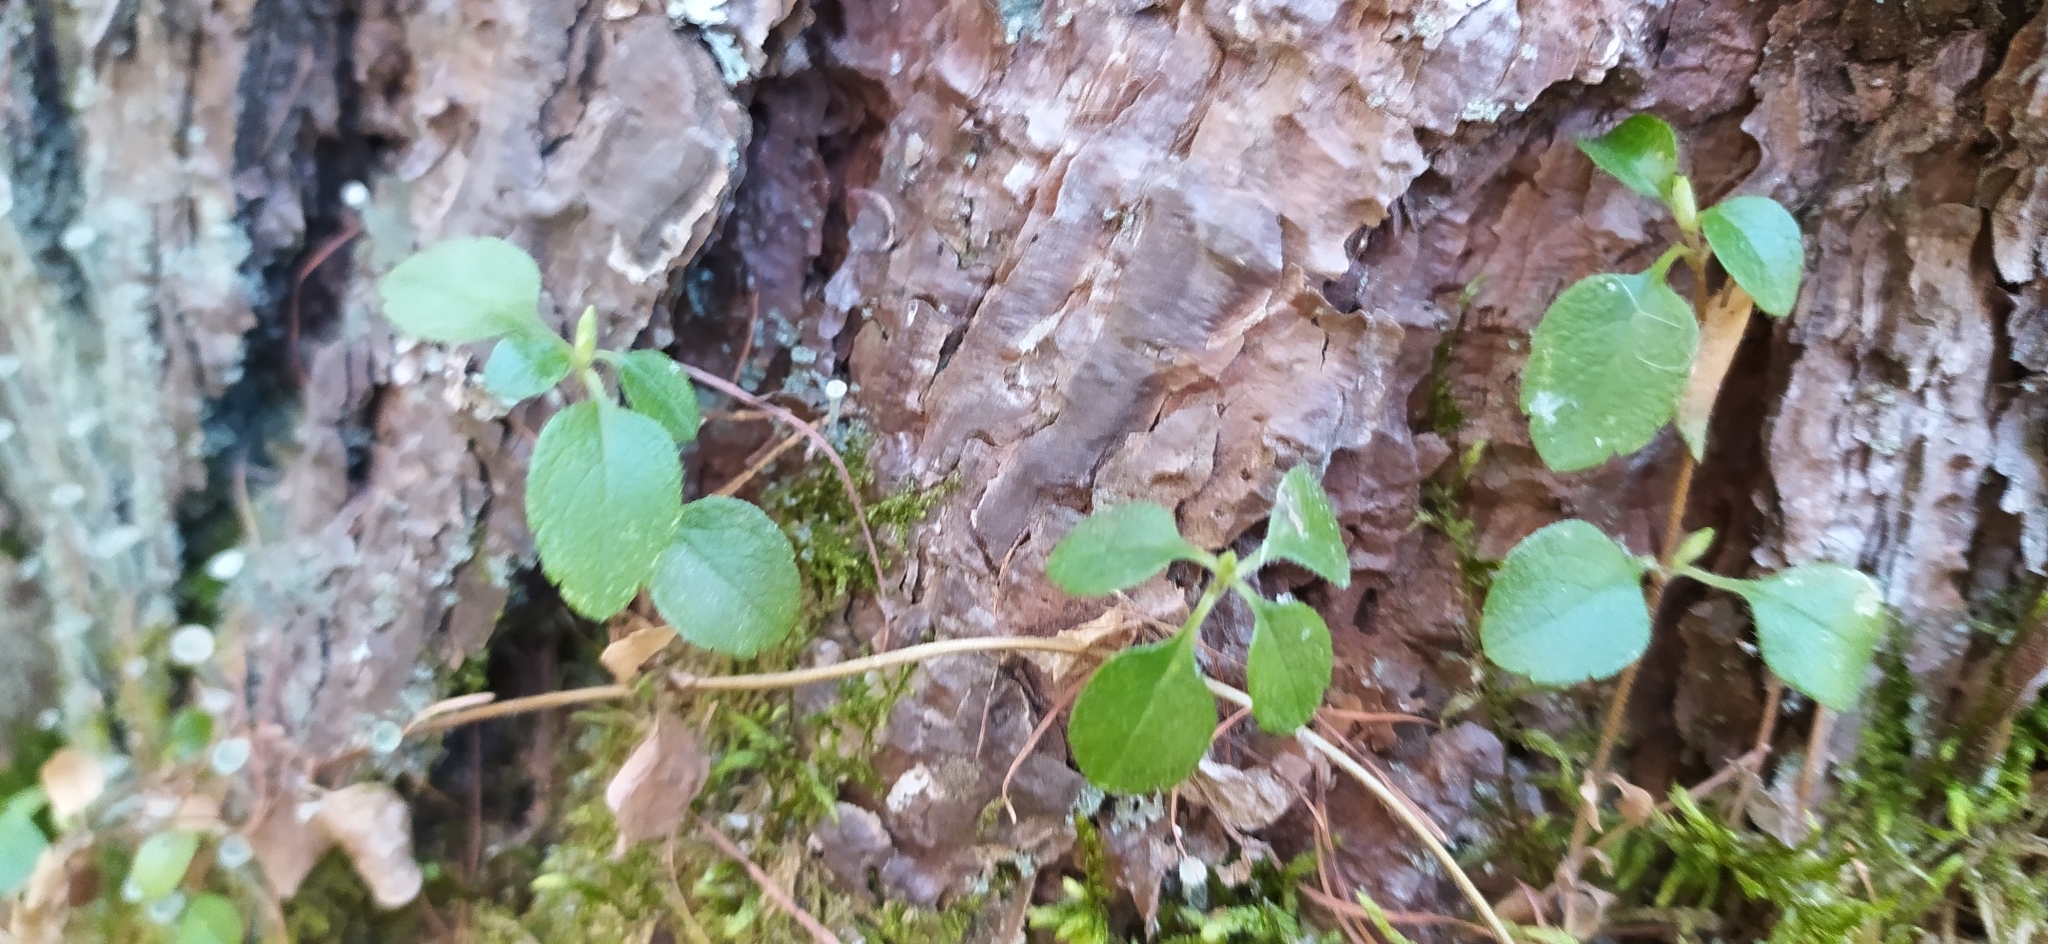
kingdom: Plantae
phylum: Tracheophyta
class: Magnoliopsida
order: Dipsacales
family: Caprifoliaceae
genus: Linnaea
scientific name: Linnaea borealis
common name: Twinflower
